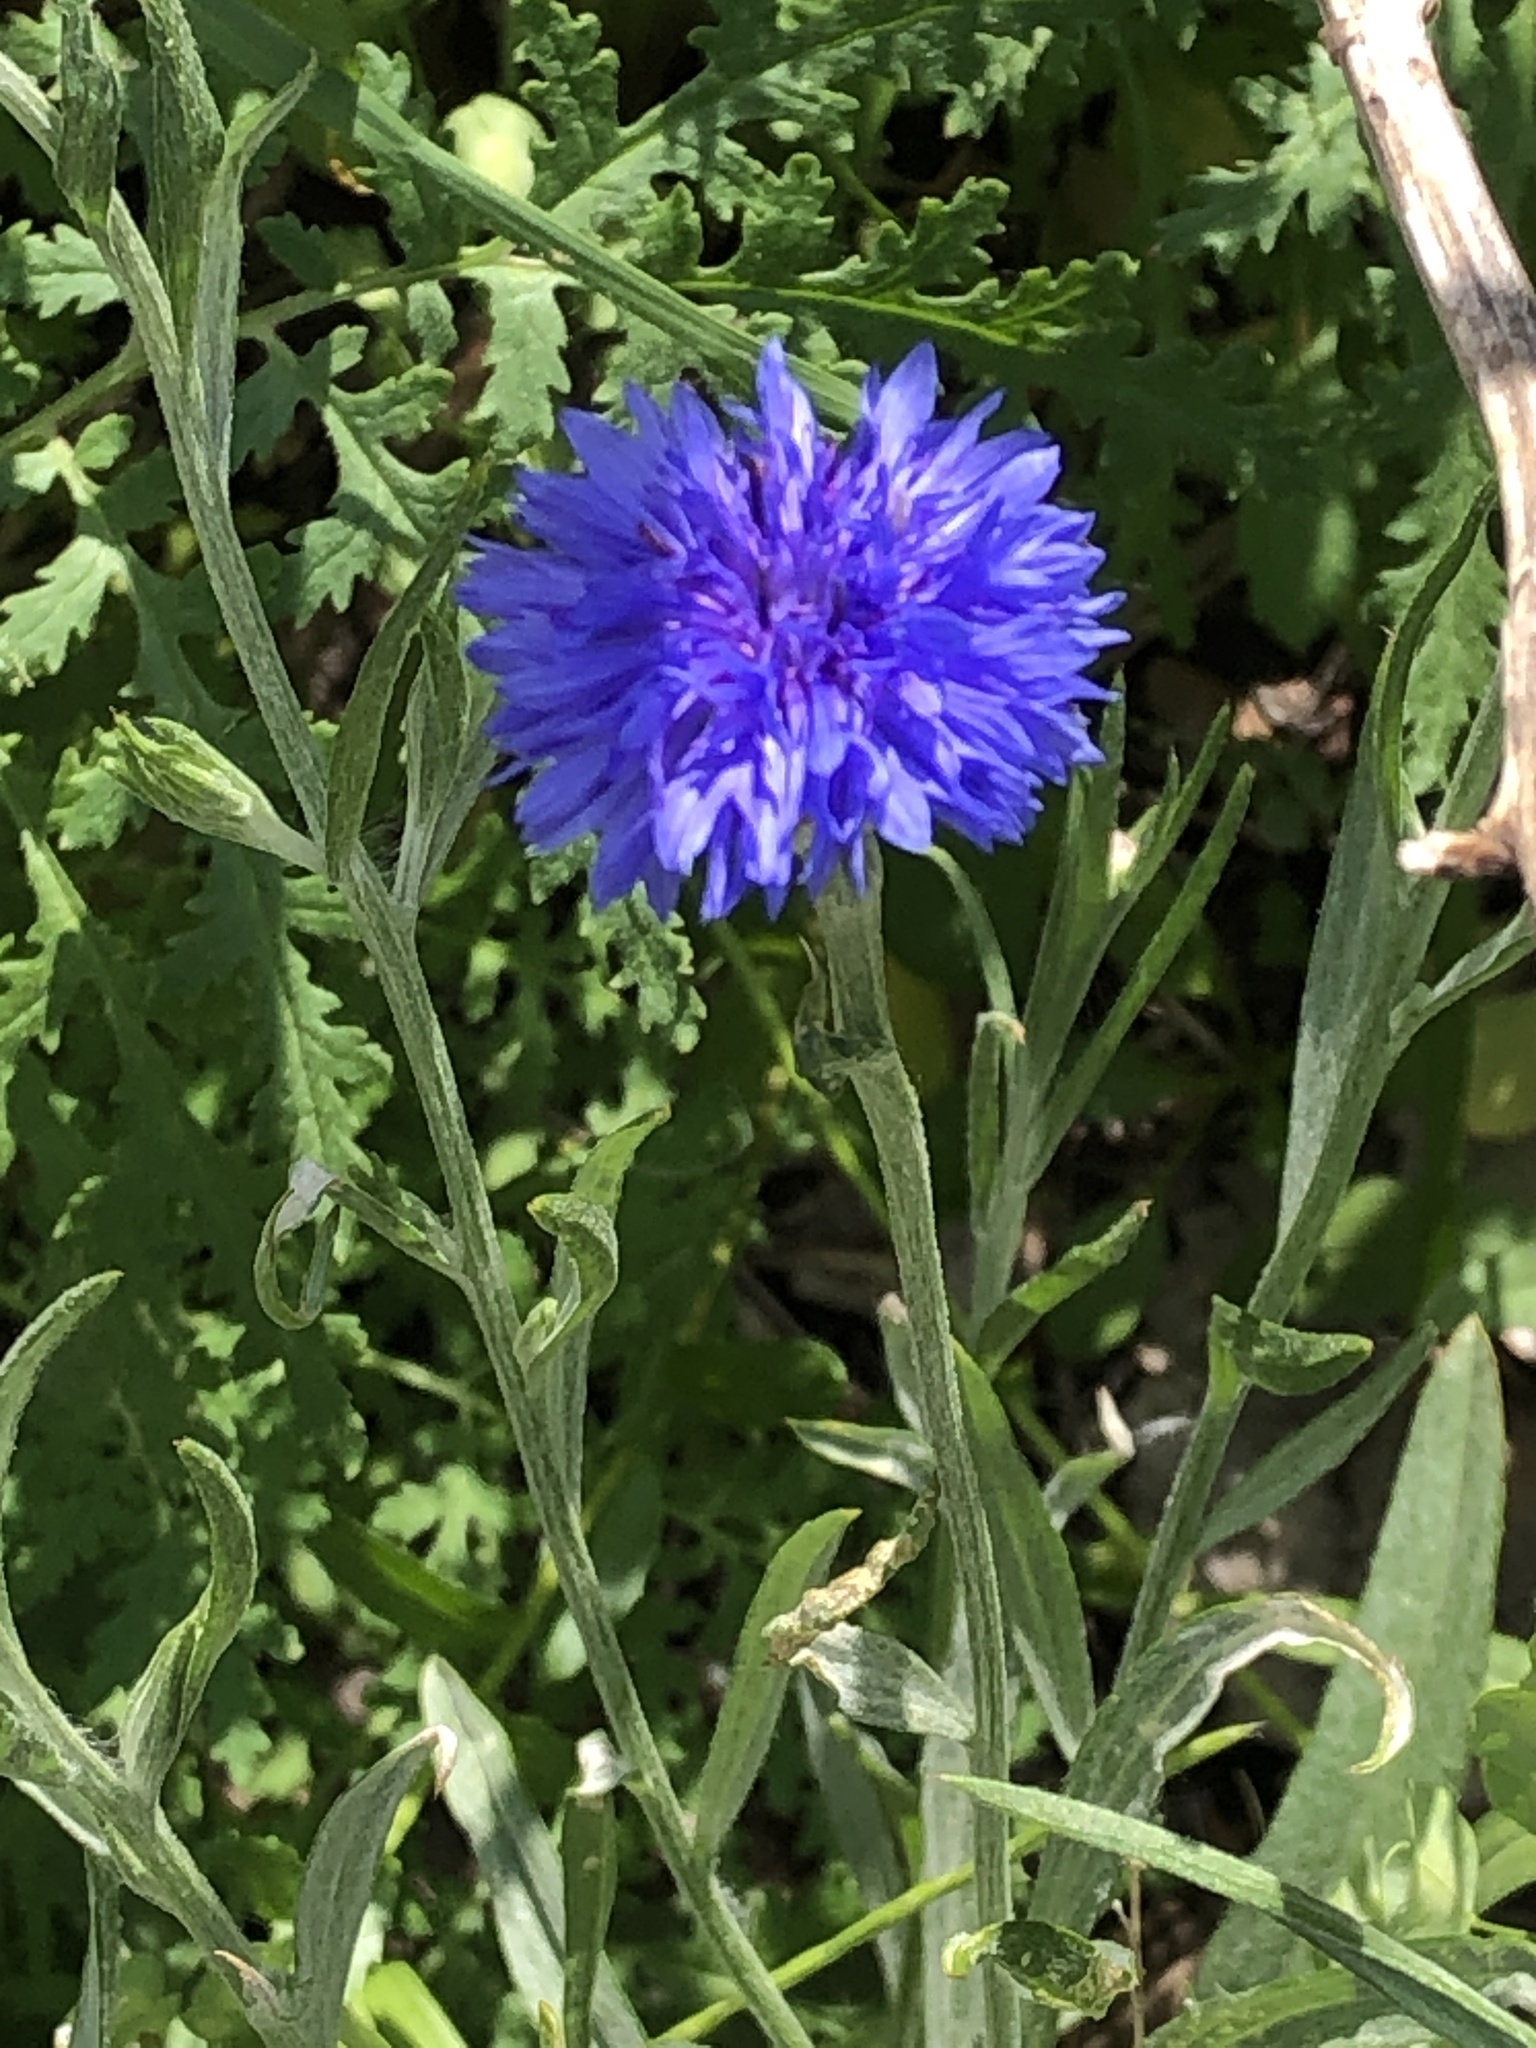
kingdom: Plantae
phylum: Tracheophyta
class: Magnoliopsida
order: Asterales
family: Asteraceae
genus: Centaurea
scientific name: Centaurea cyanus
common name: Cornflower
